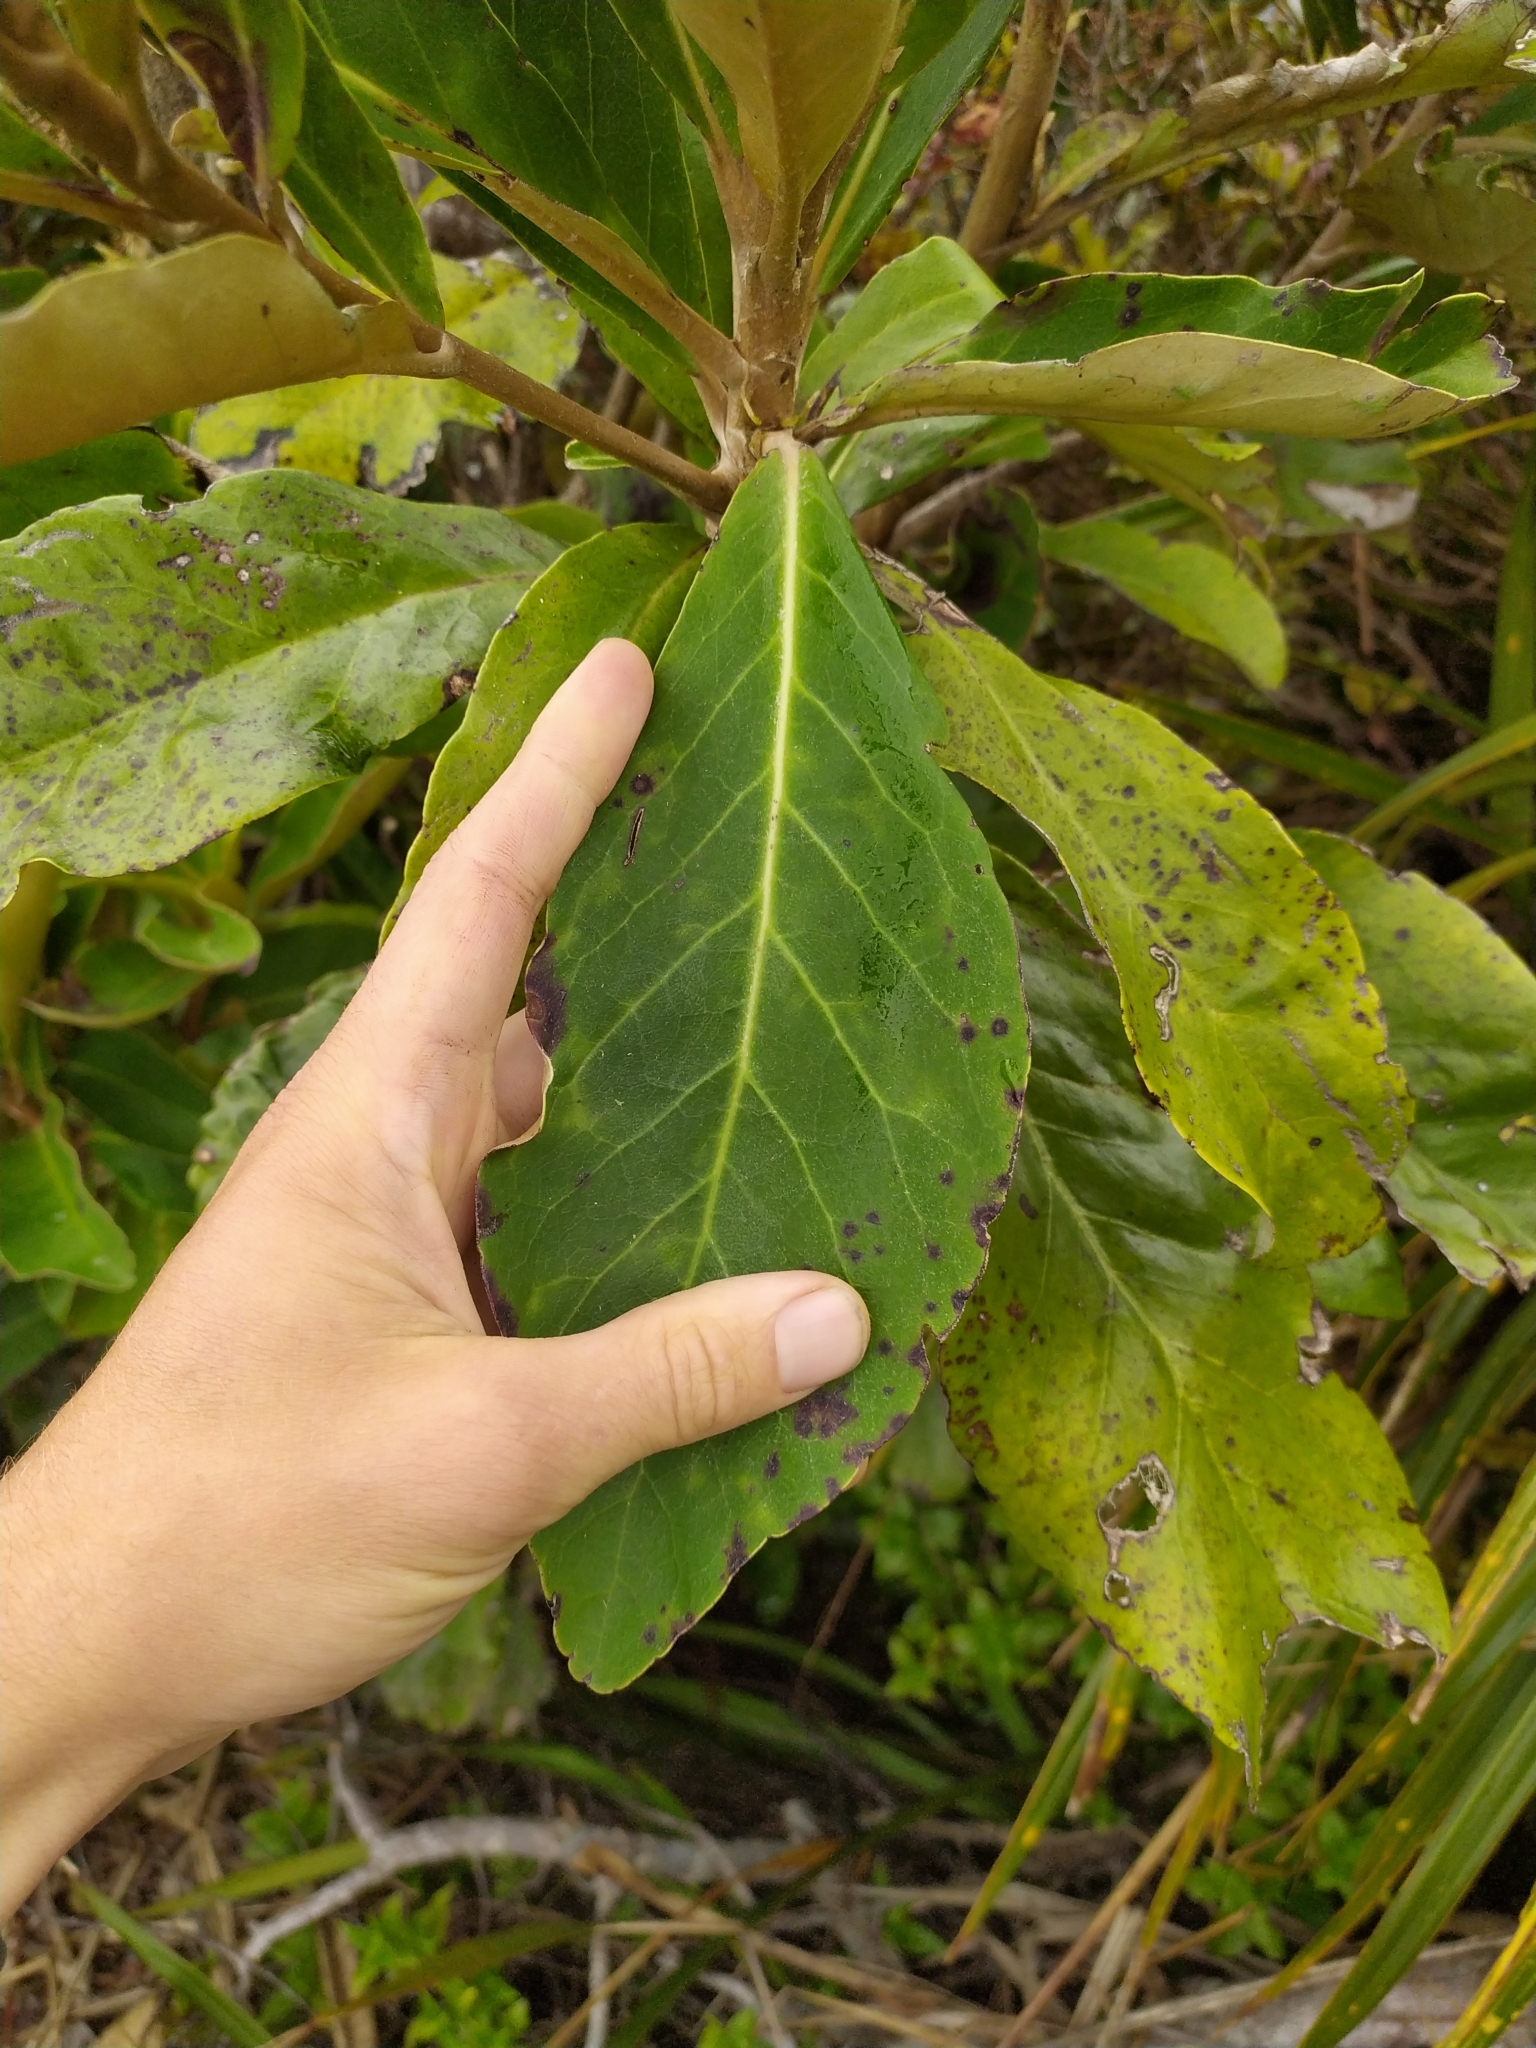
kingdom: Plantae
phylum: Tracheophyta
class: Magnoliopsida
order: Asterales
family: Asteraceae
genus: Olearia
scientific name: Olearia crebra
